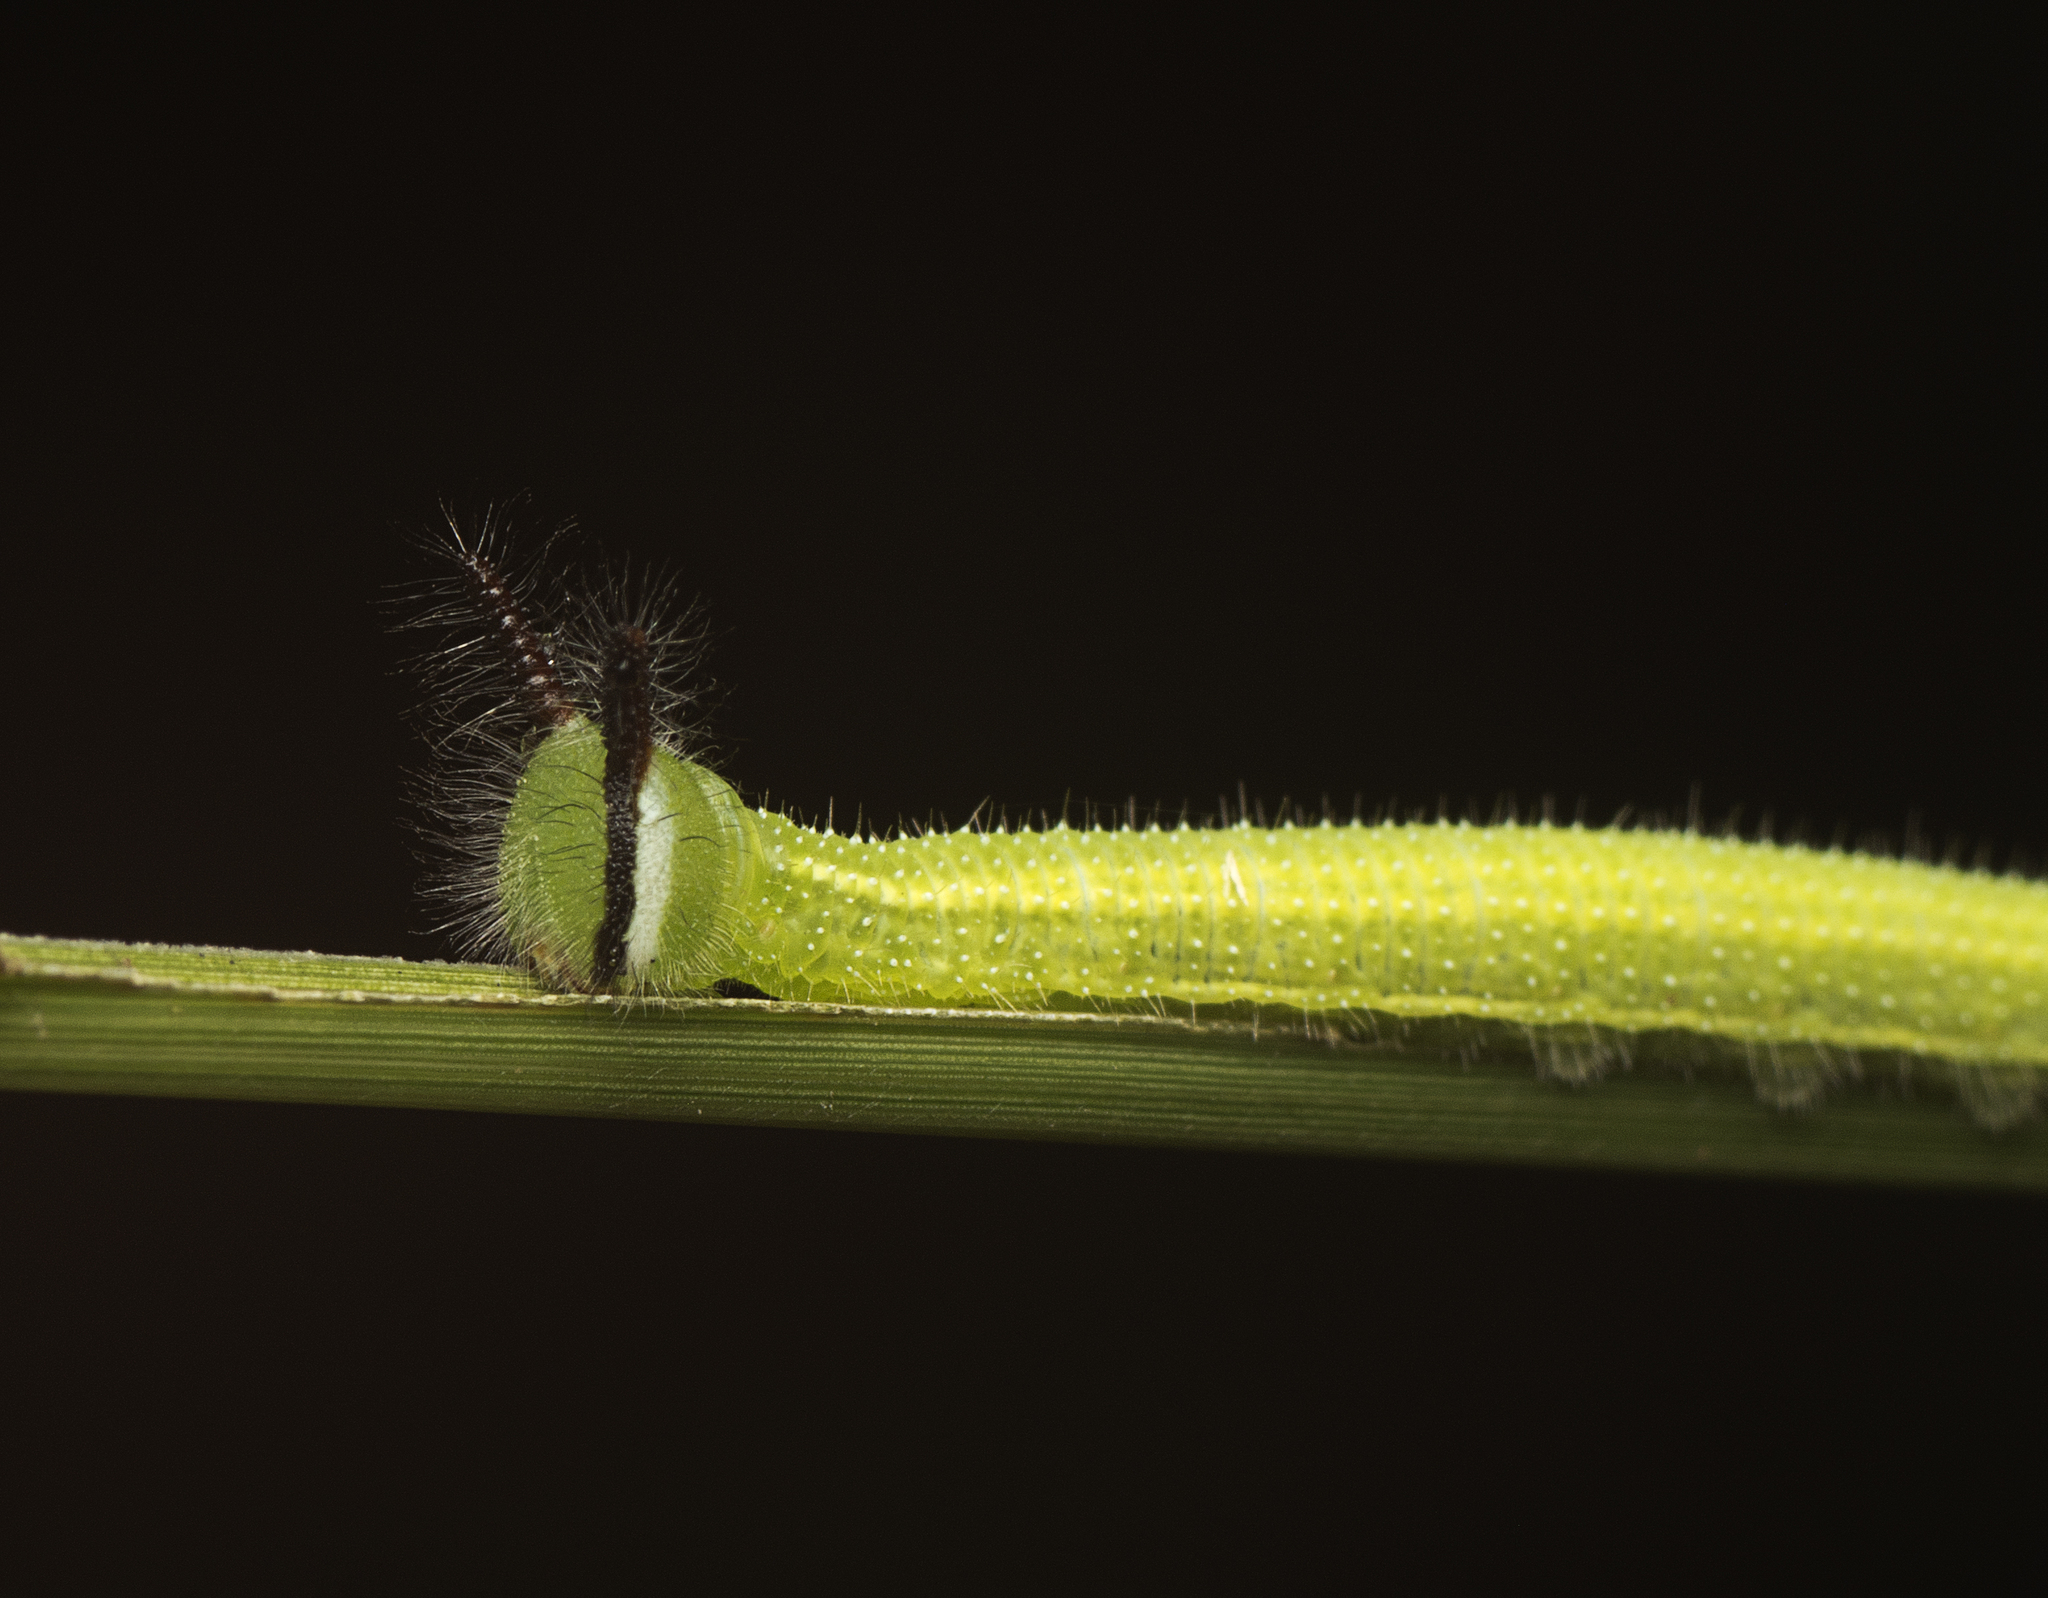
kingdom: Animalia
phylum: Arthropoda
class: Insecta
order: Lepidoptera
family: Nymphalidae
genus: Melanitis
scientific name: Melanitis leda
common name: Twilight brown
